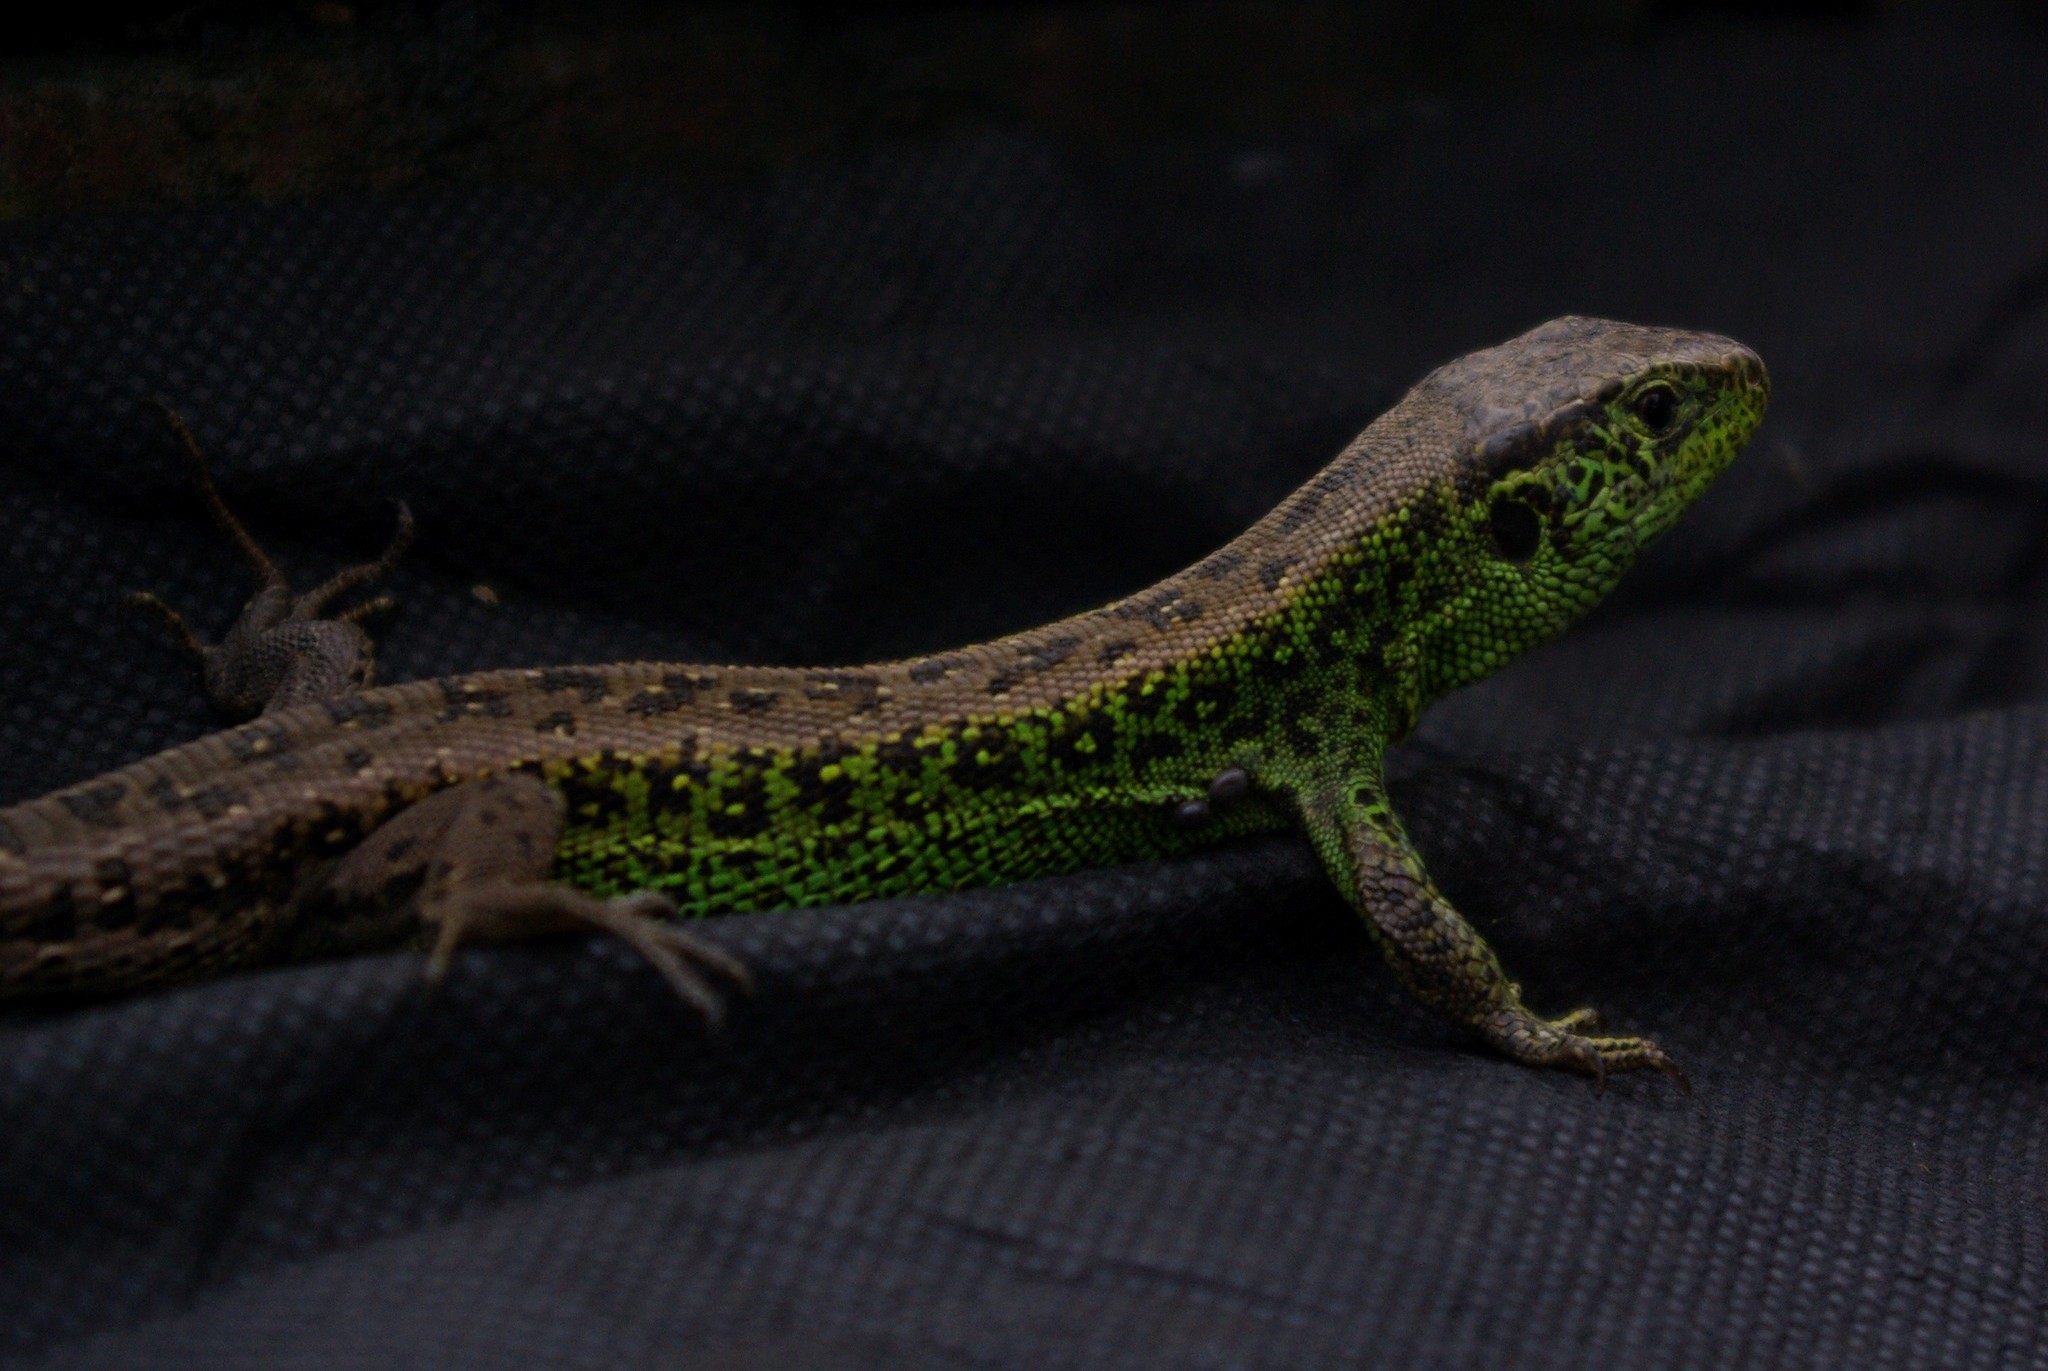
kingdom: Animalia
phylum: Chordata
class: Squamata
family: Lacertidae
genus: Lacerta
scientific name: Lacerta agilis
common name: Sand lizard
